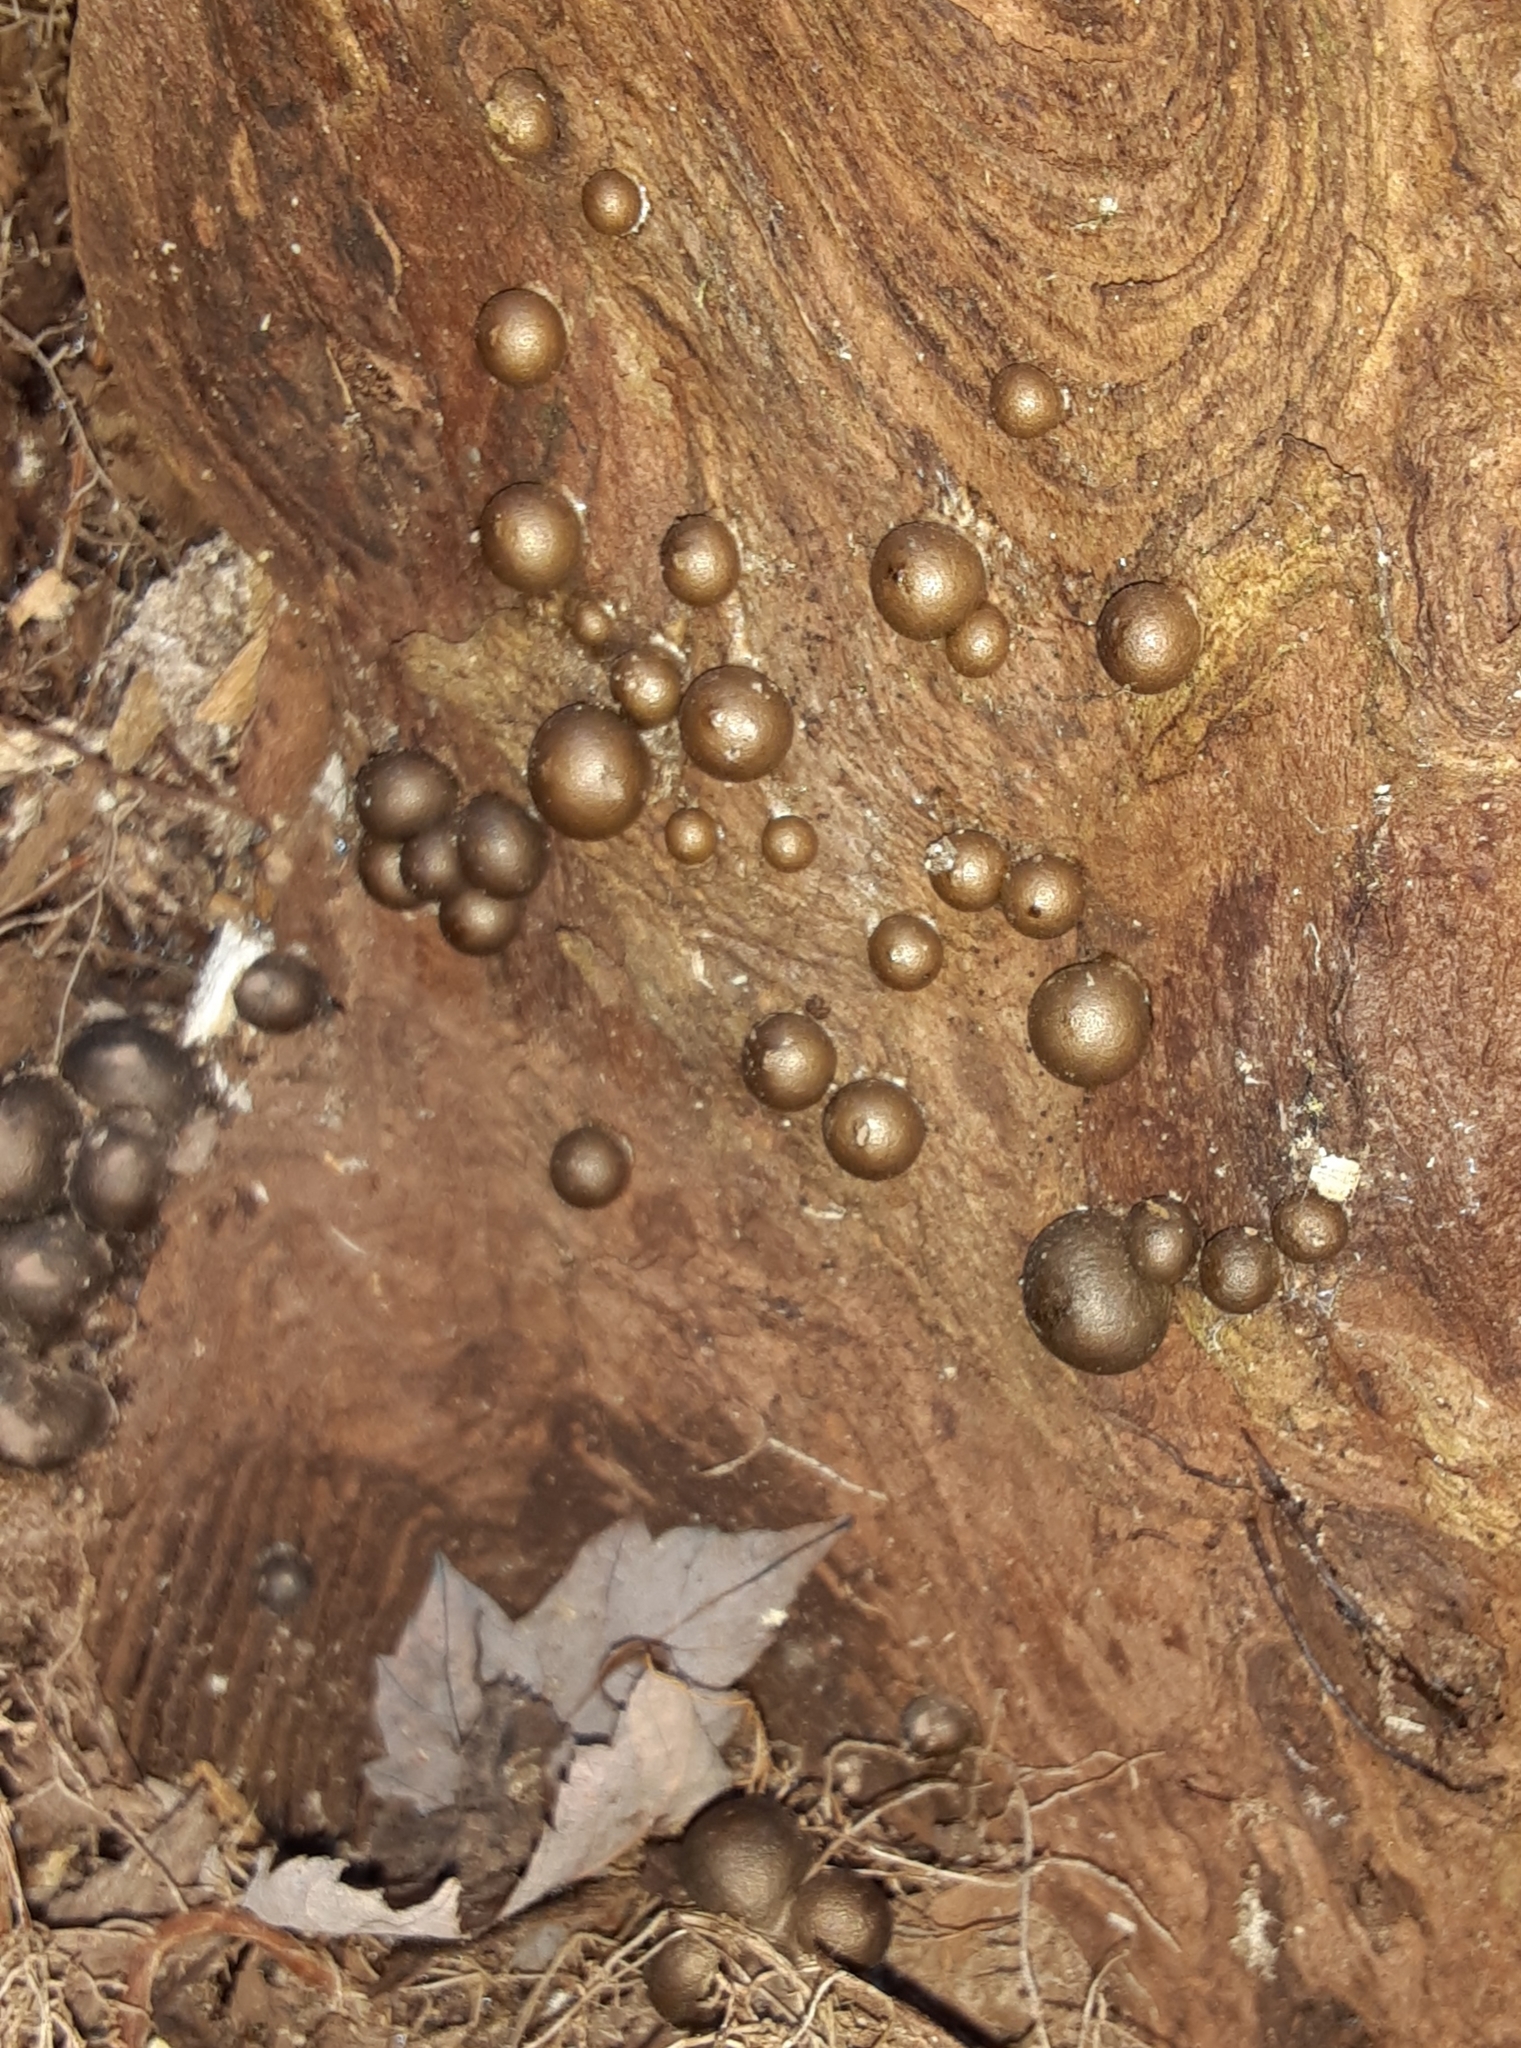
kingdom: Protozoa
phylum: Mycetozoa
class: Myxomycetes
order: Cribrariales
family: Tubiferaceae
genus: Lycogala
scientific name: Lycogala epidendrum
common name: Wolf's milk
